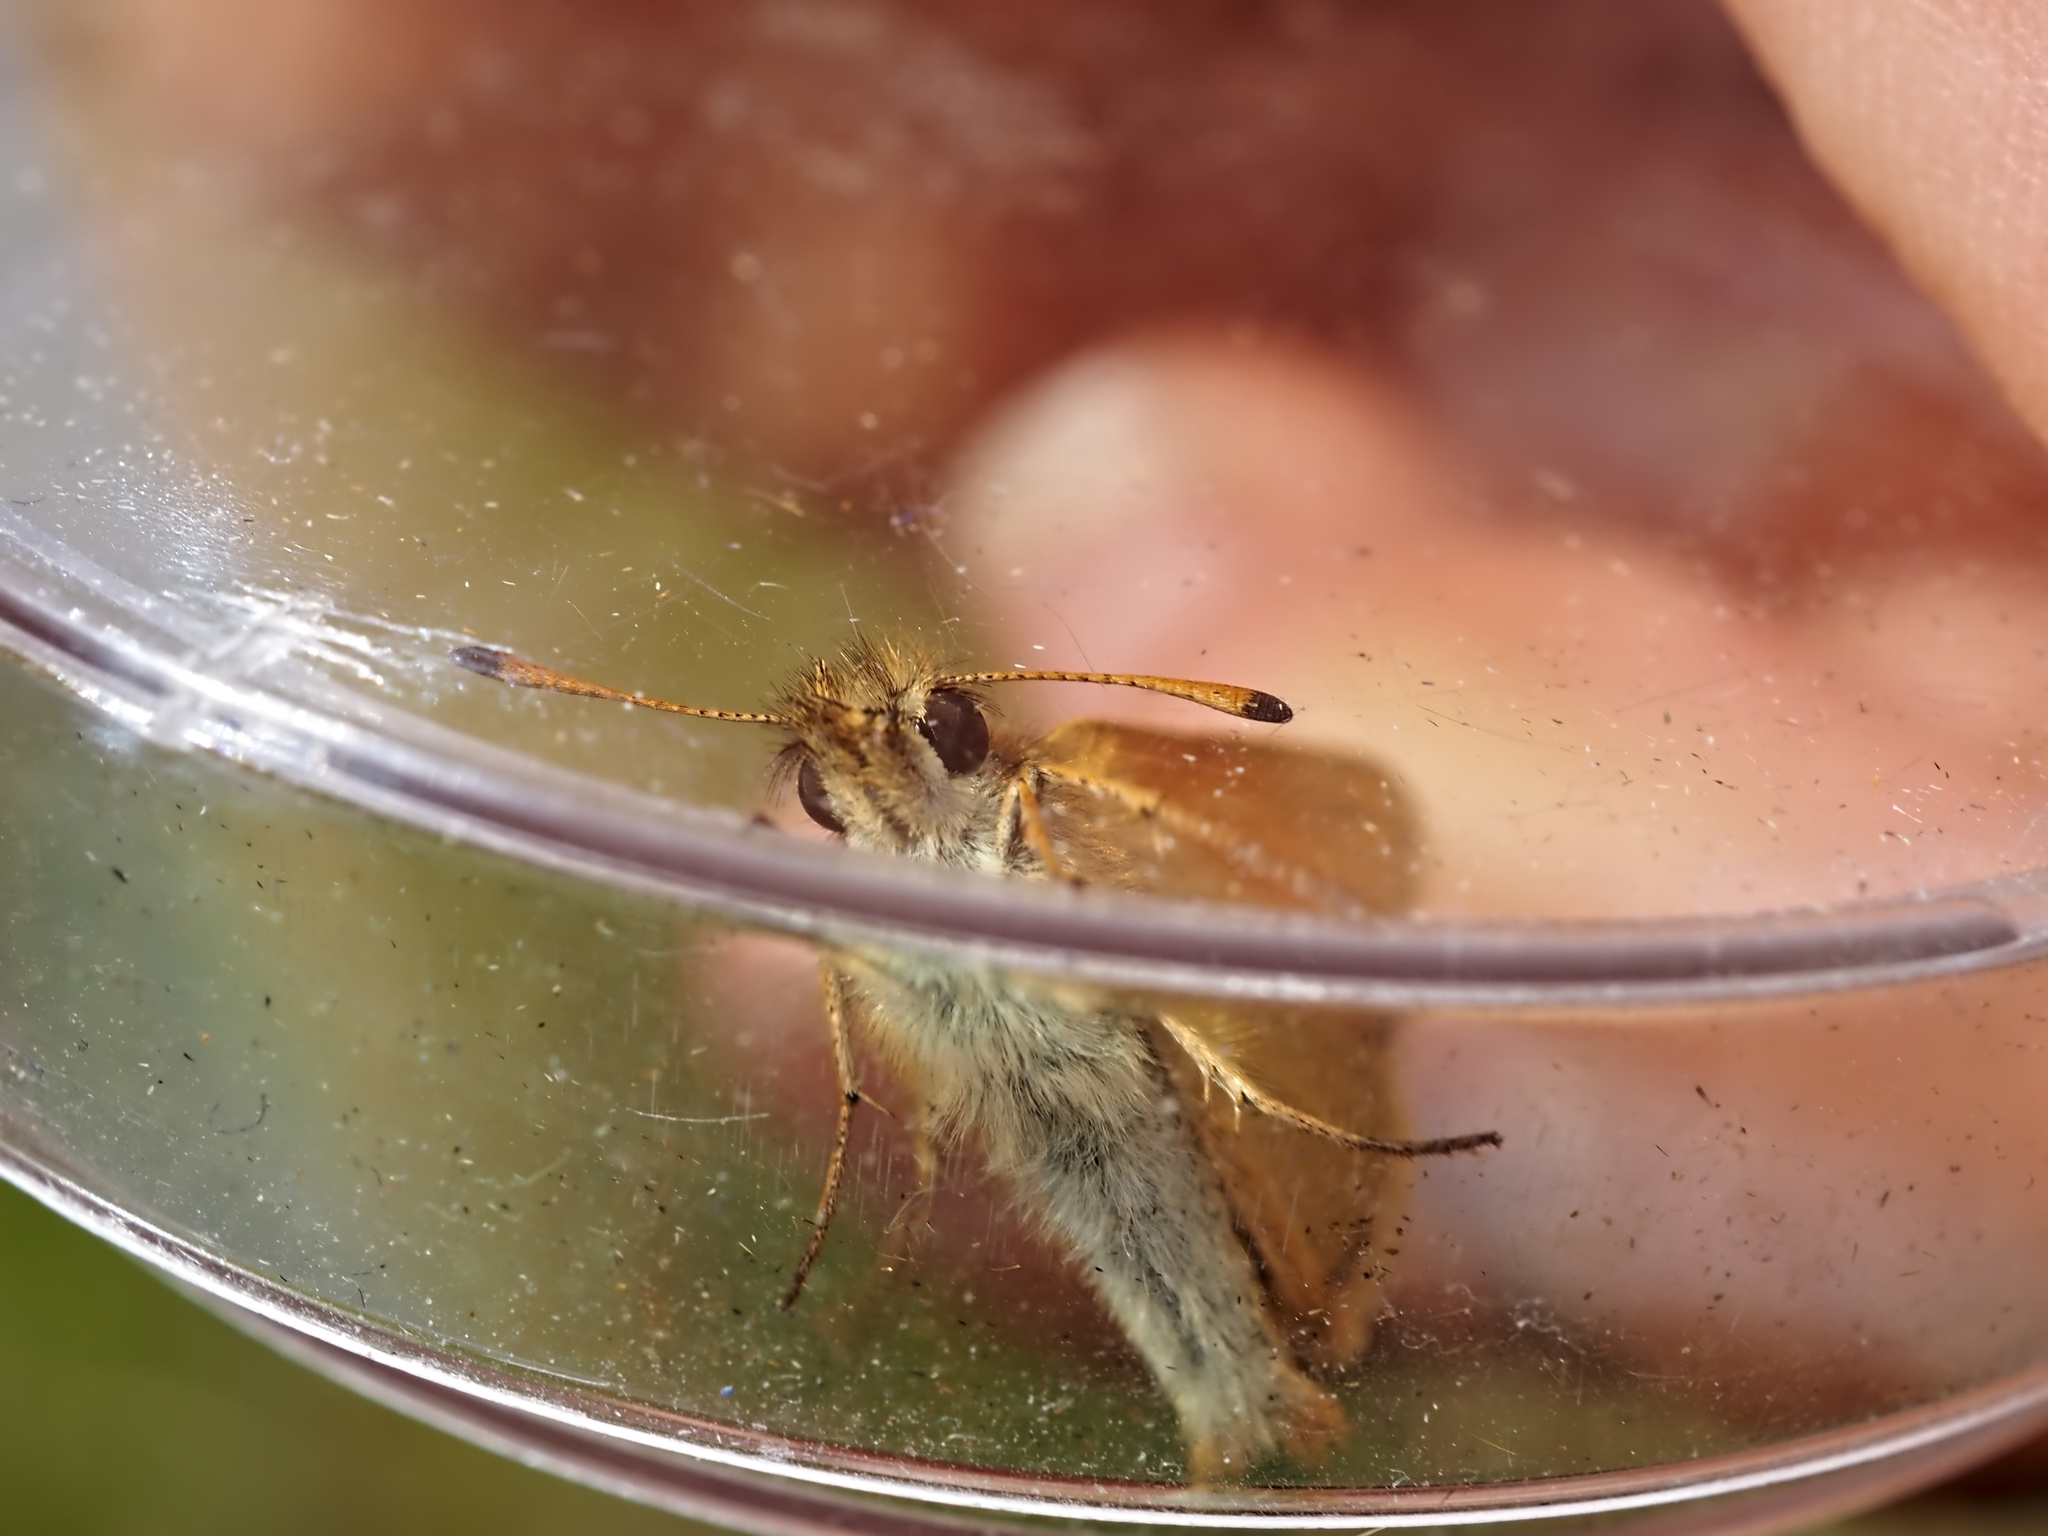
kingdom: Animalia
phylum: Arthropoda
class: Insecta
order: Lepidoptera
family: Hesperiidae
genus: Thymelicus
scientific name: Thymelicus lineola
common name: Essex skipper
